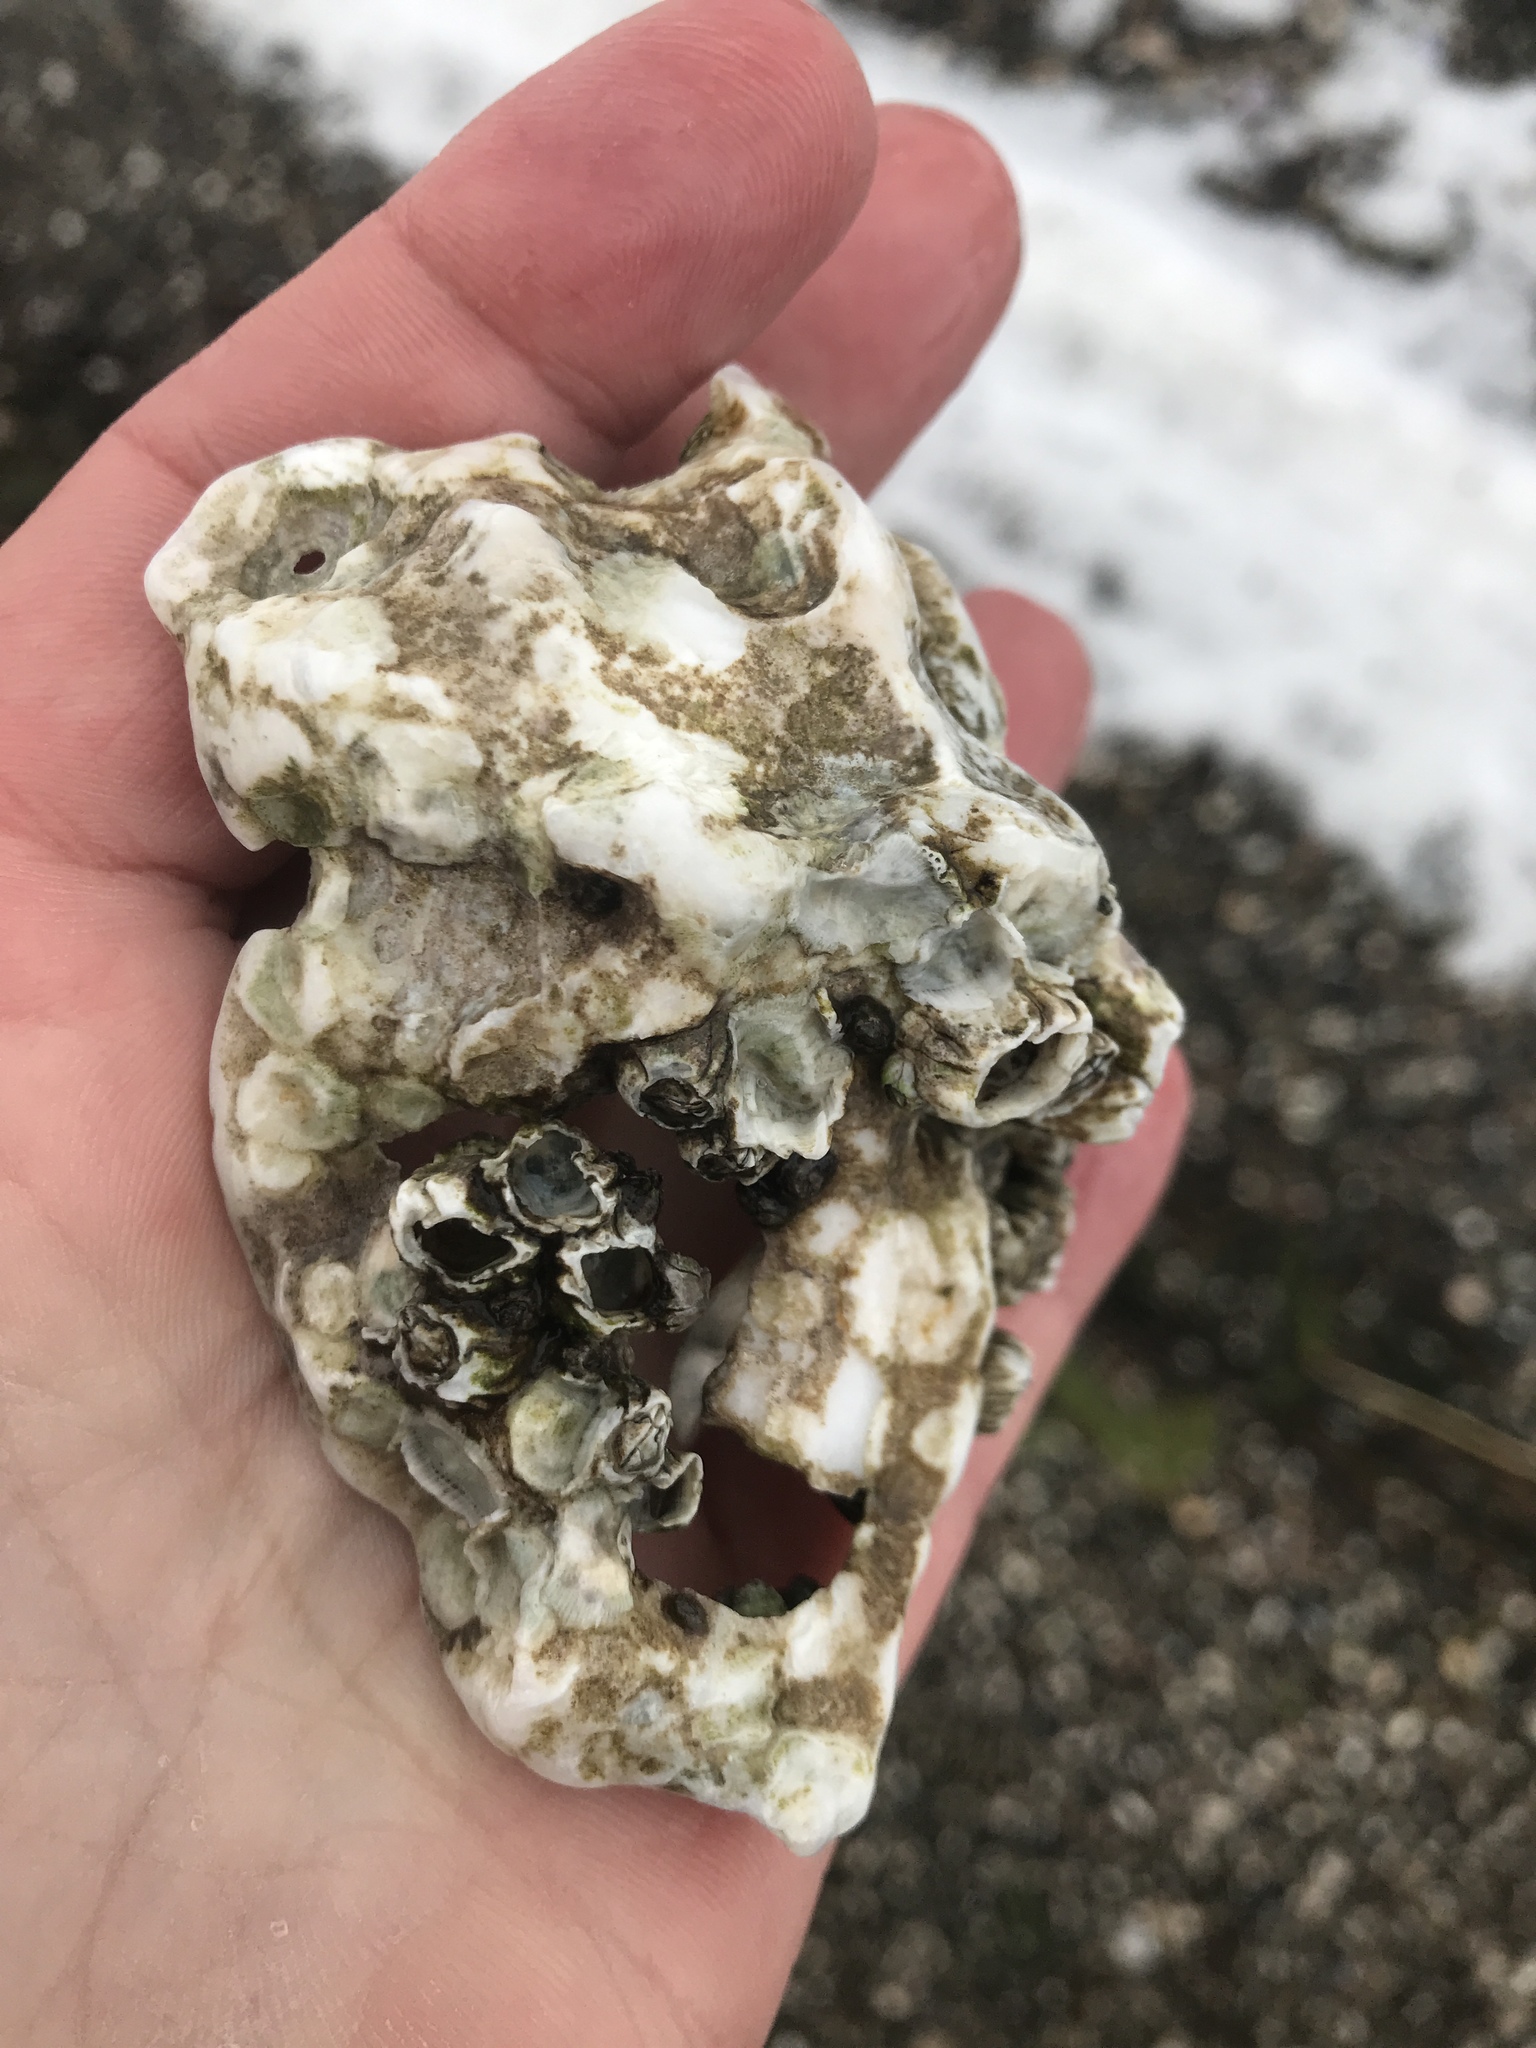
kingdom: Animalia
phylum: Mollusca
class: Bivalvia
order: Ostreida
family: Ostreidae
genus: Magallana
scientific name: Magallana gigas
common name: Pacific oyster
